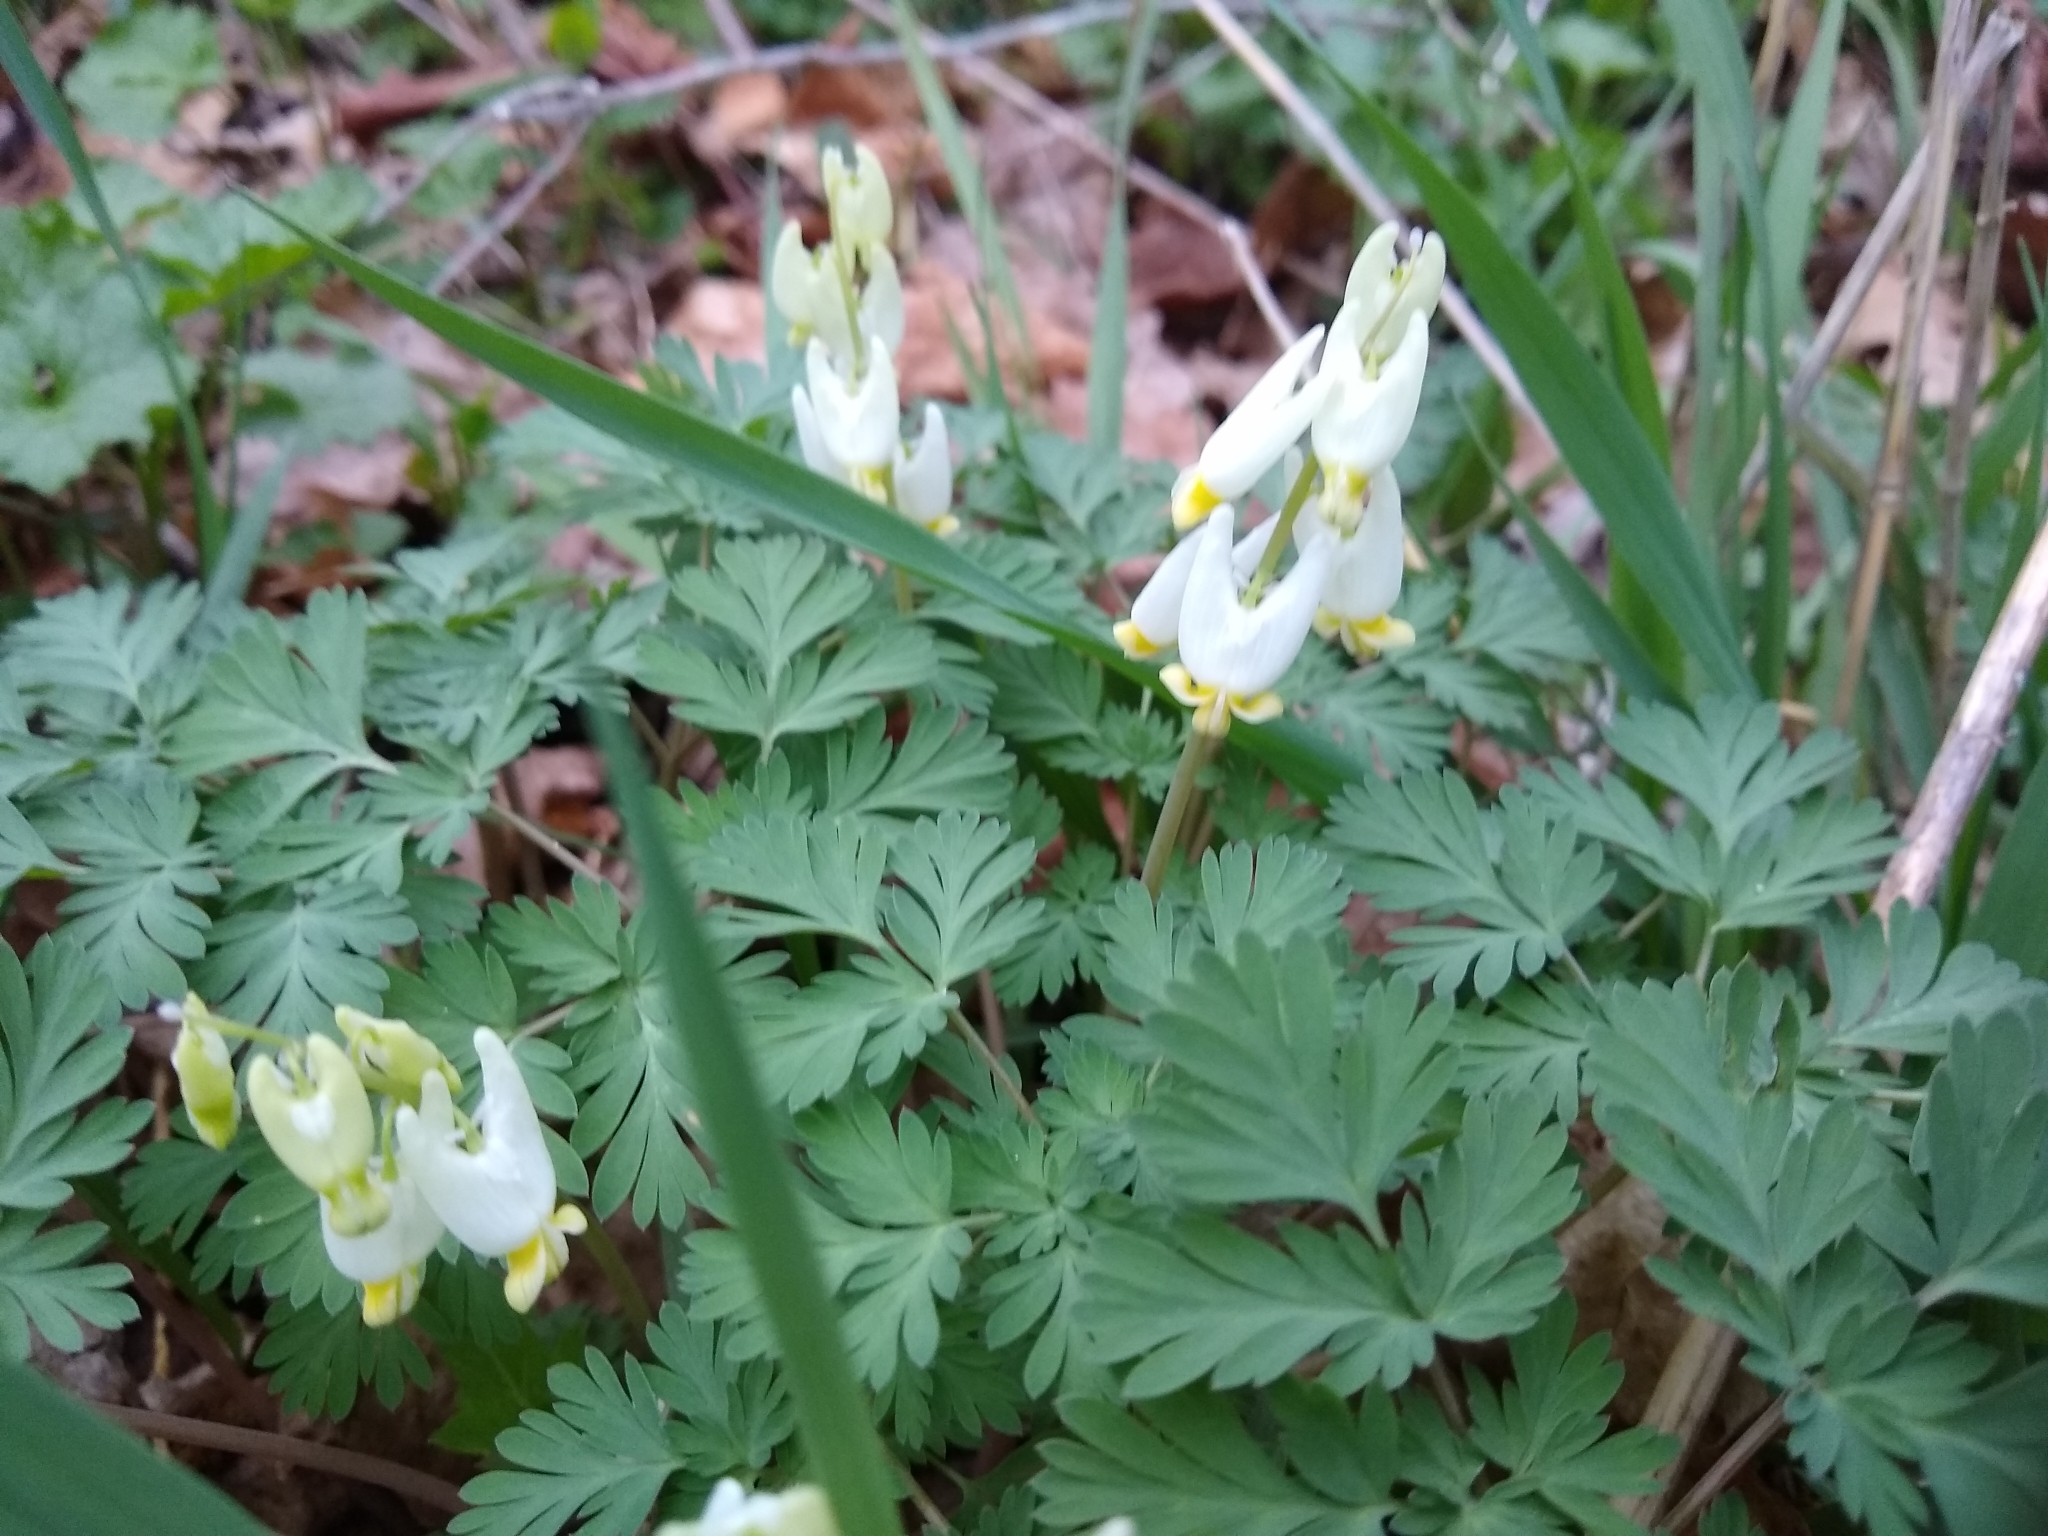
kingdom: Plantae
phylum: Tracheophyta
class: Magnoliopsida
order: Ranunculales
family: Papaveraceae
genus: Dicentra
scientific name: Dicentra cucullaria
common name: Dutchman's breeches
